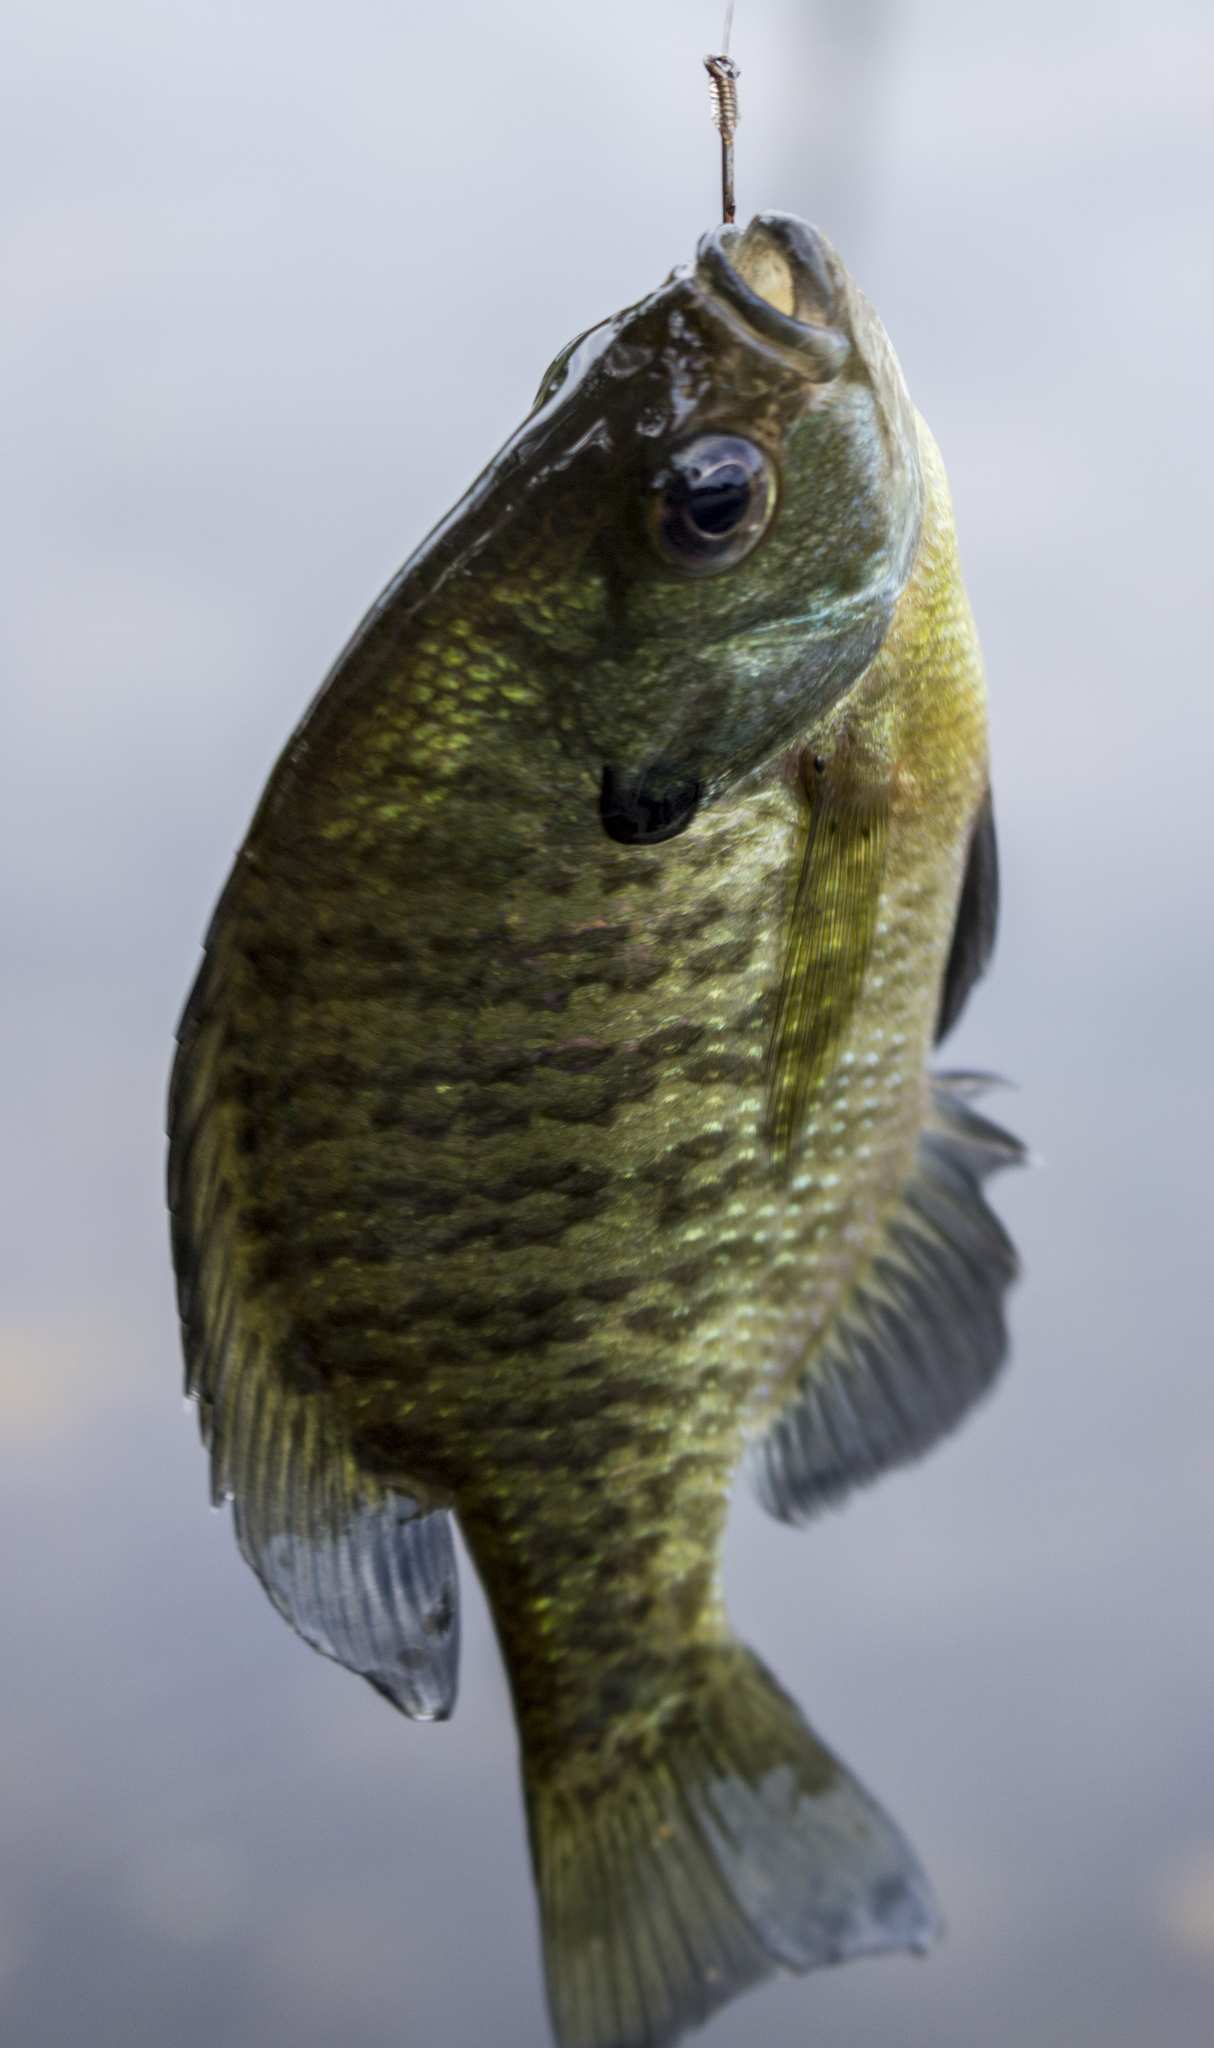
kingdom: Animalia
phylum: Chordata
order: Perciformes
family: Centrarchidae
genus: Lepomis
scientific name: Lepomis macrochirus
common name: Bluegill
